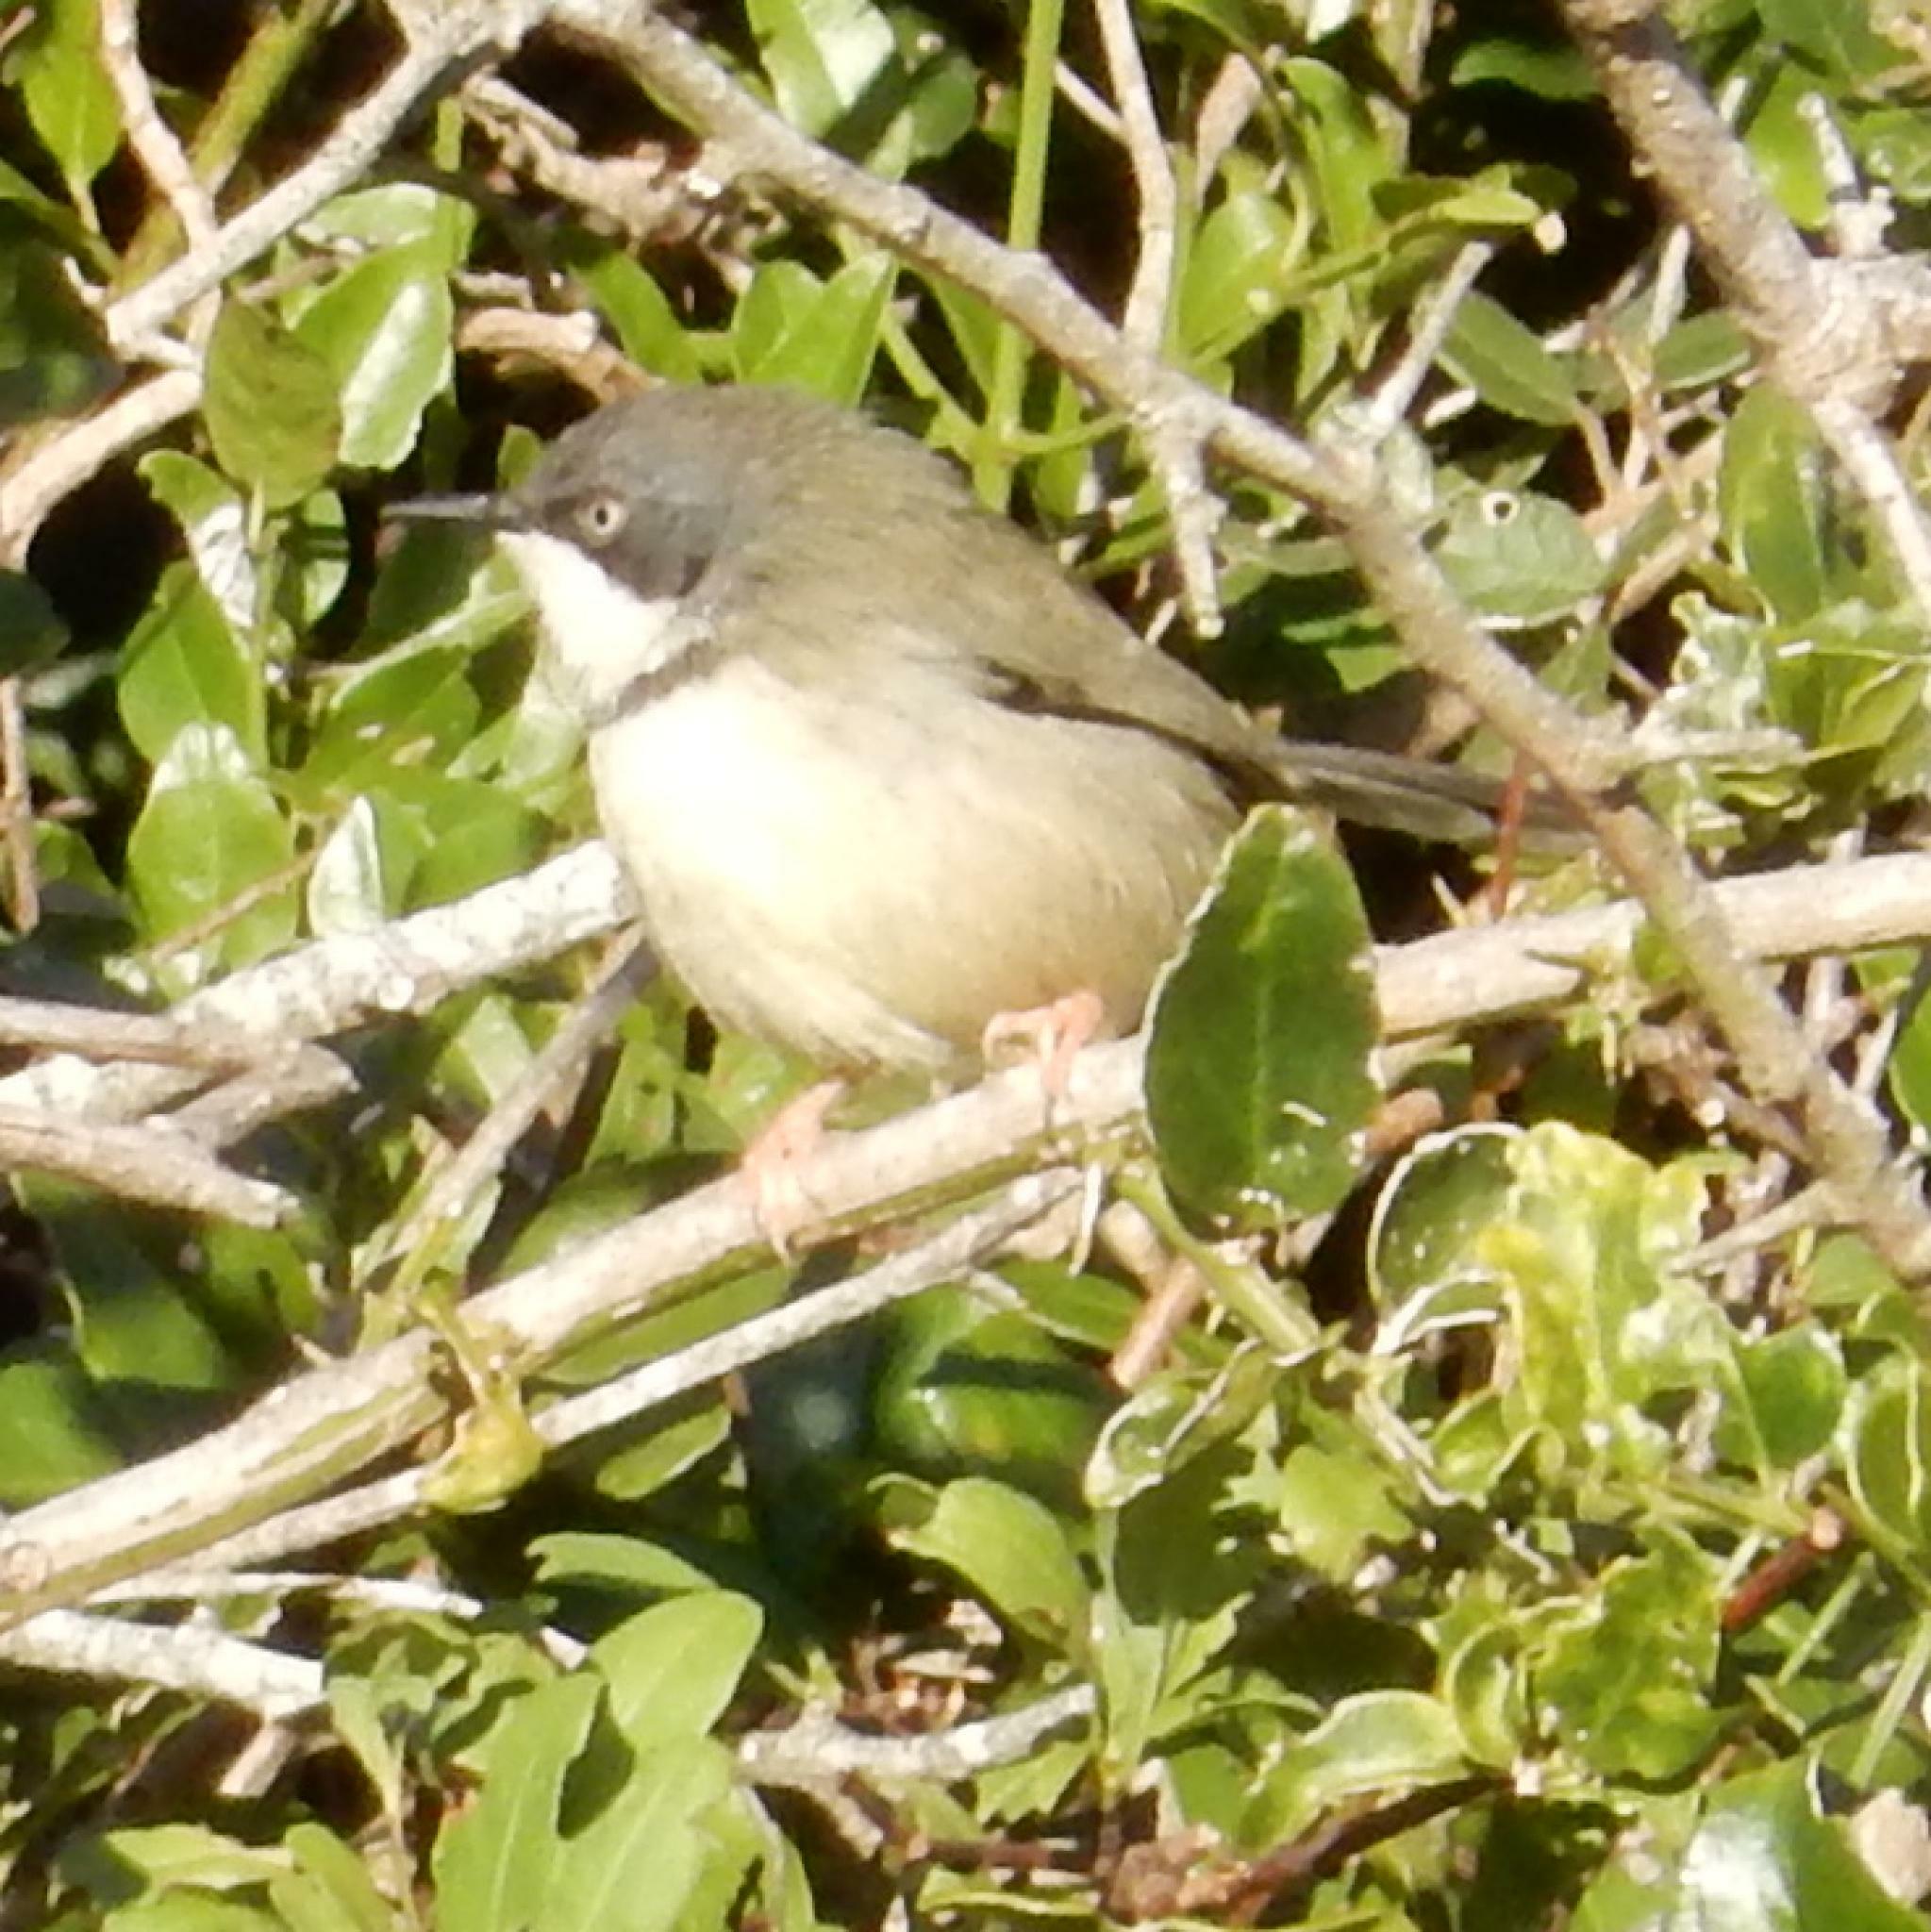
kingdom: Animalia
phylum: Chordata
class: Aves
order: Passeriformes
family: Cisticolidae
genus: Apalis
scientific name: Apalis thoracica
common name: Bar-throated apalis
